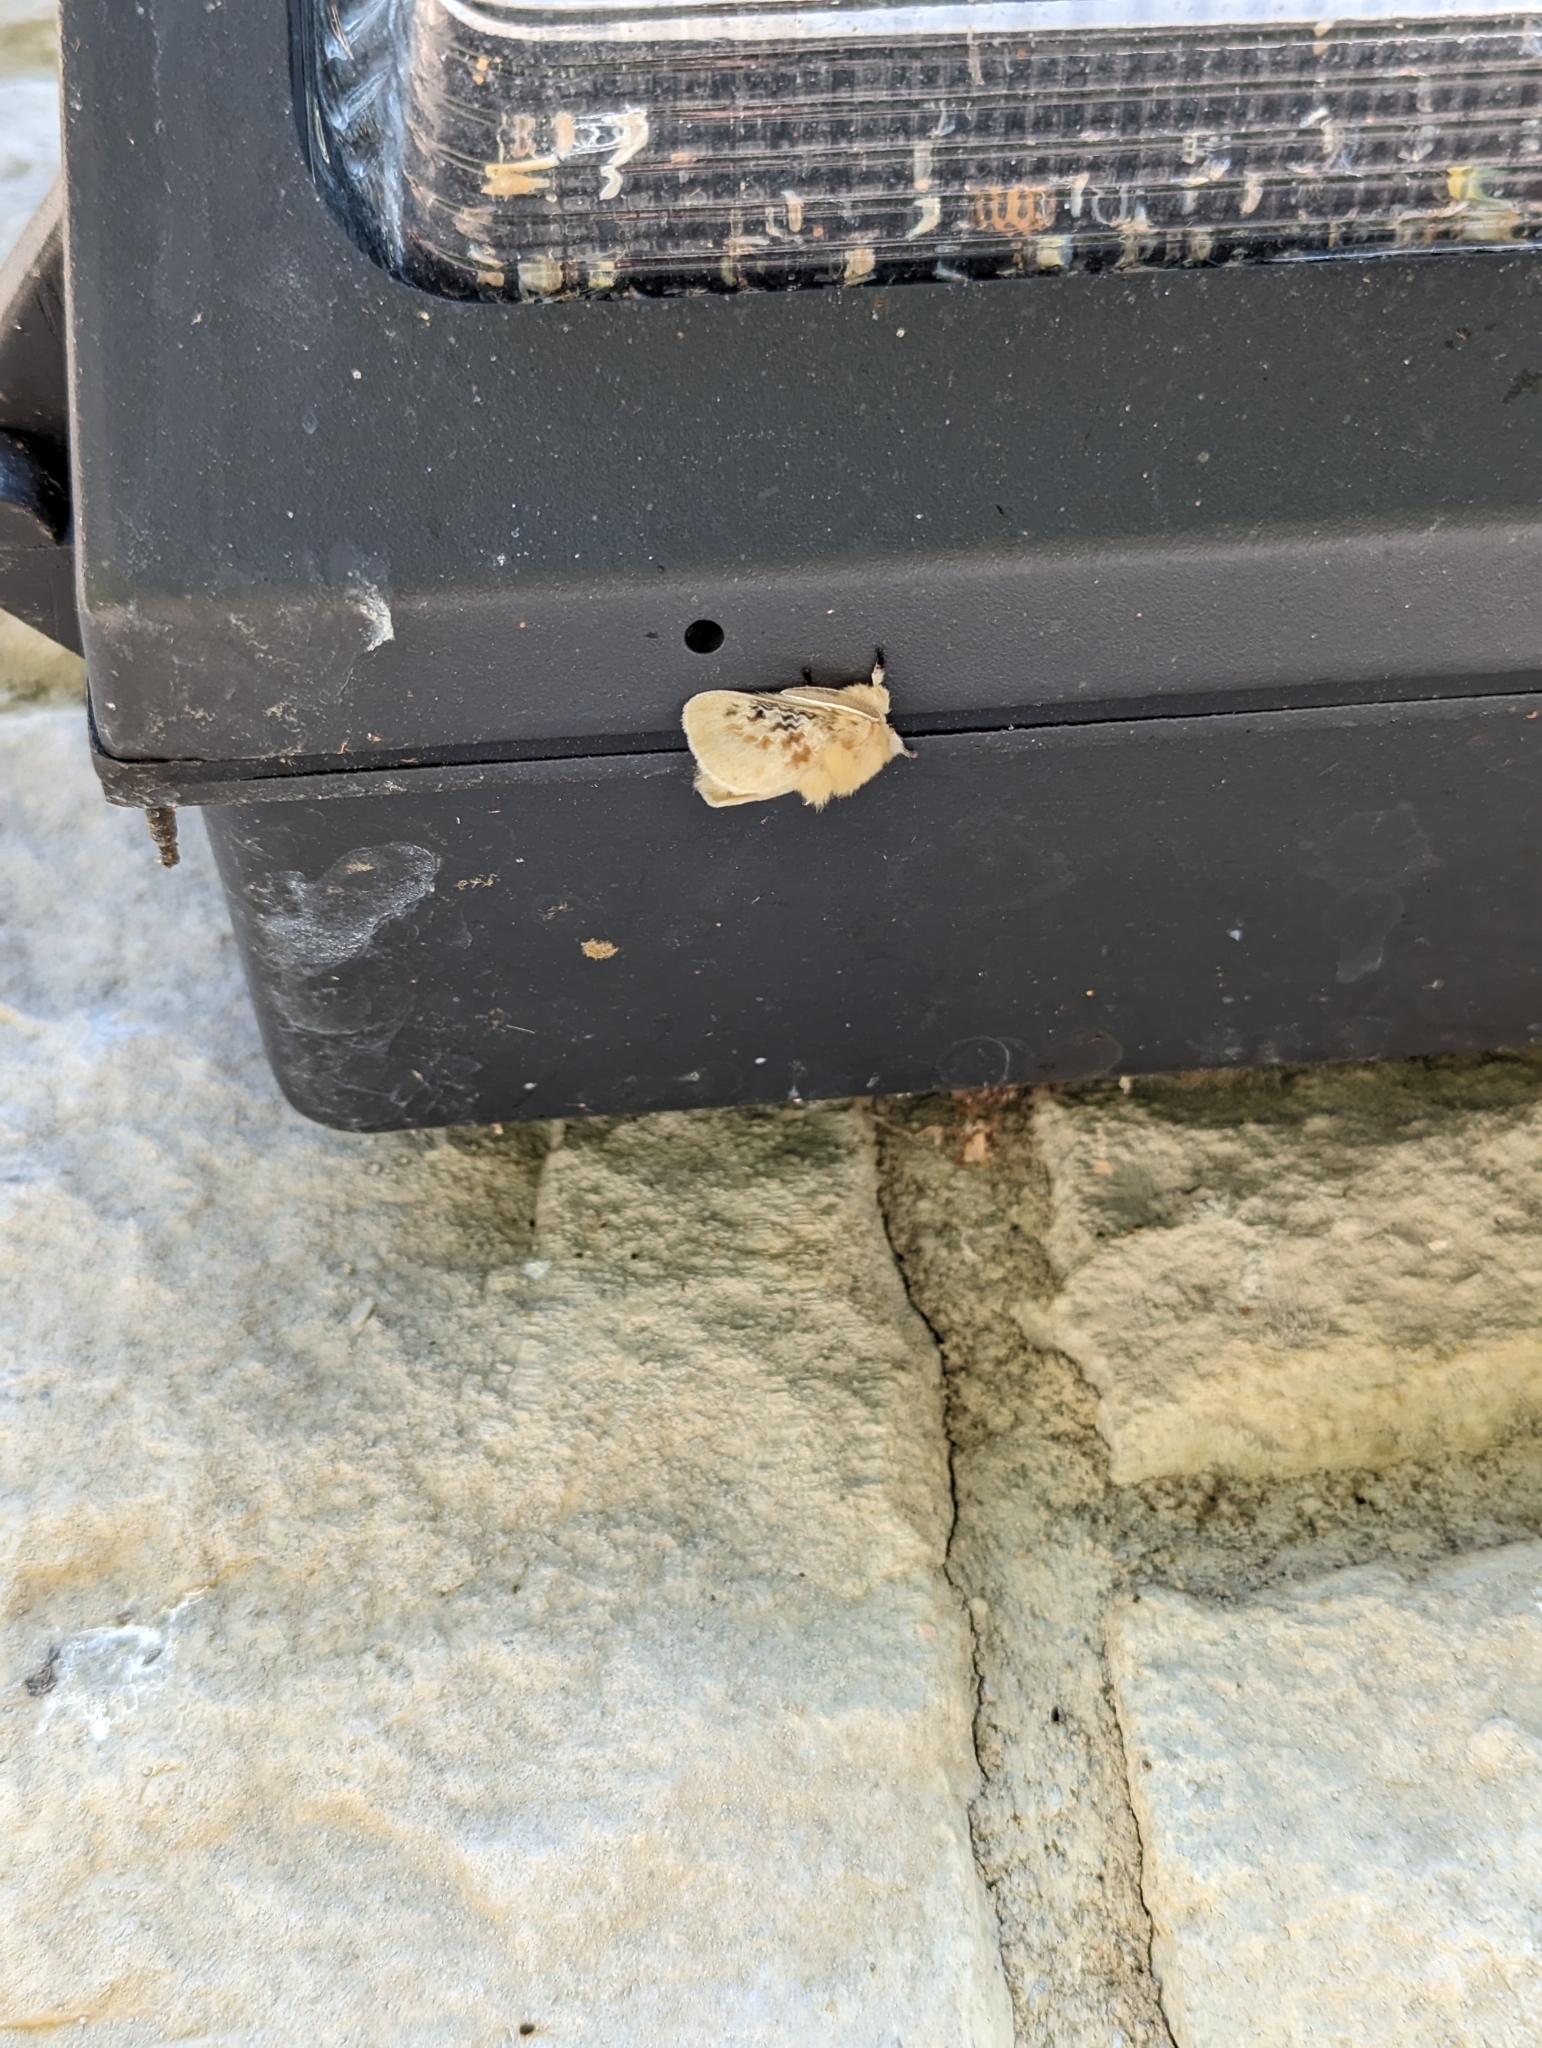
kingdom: Animalia
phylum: Arthropoda
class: Insecta
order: Lepidoptera
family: Megalopygidae
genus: Megalopyge
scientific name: Megalopyge crispata
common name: Black-waved flannel moth
